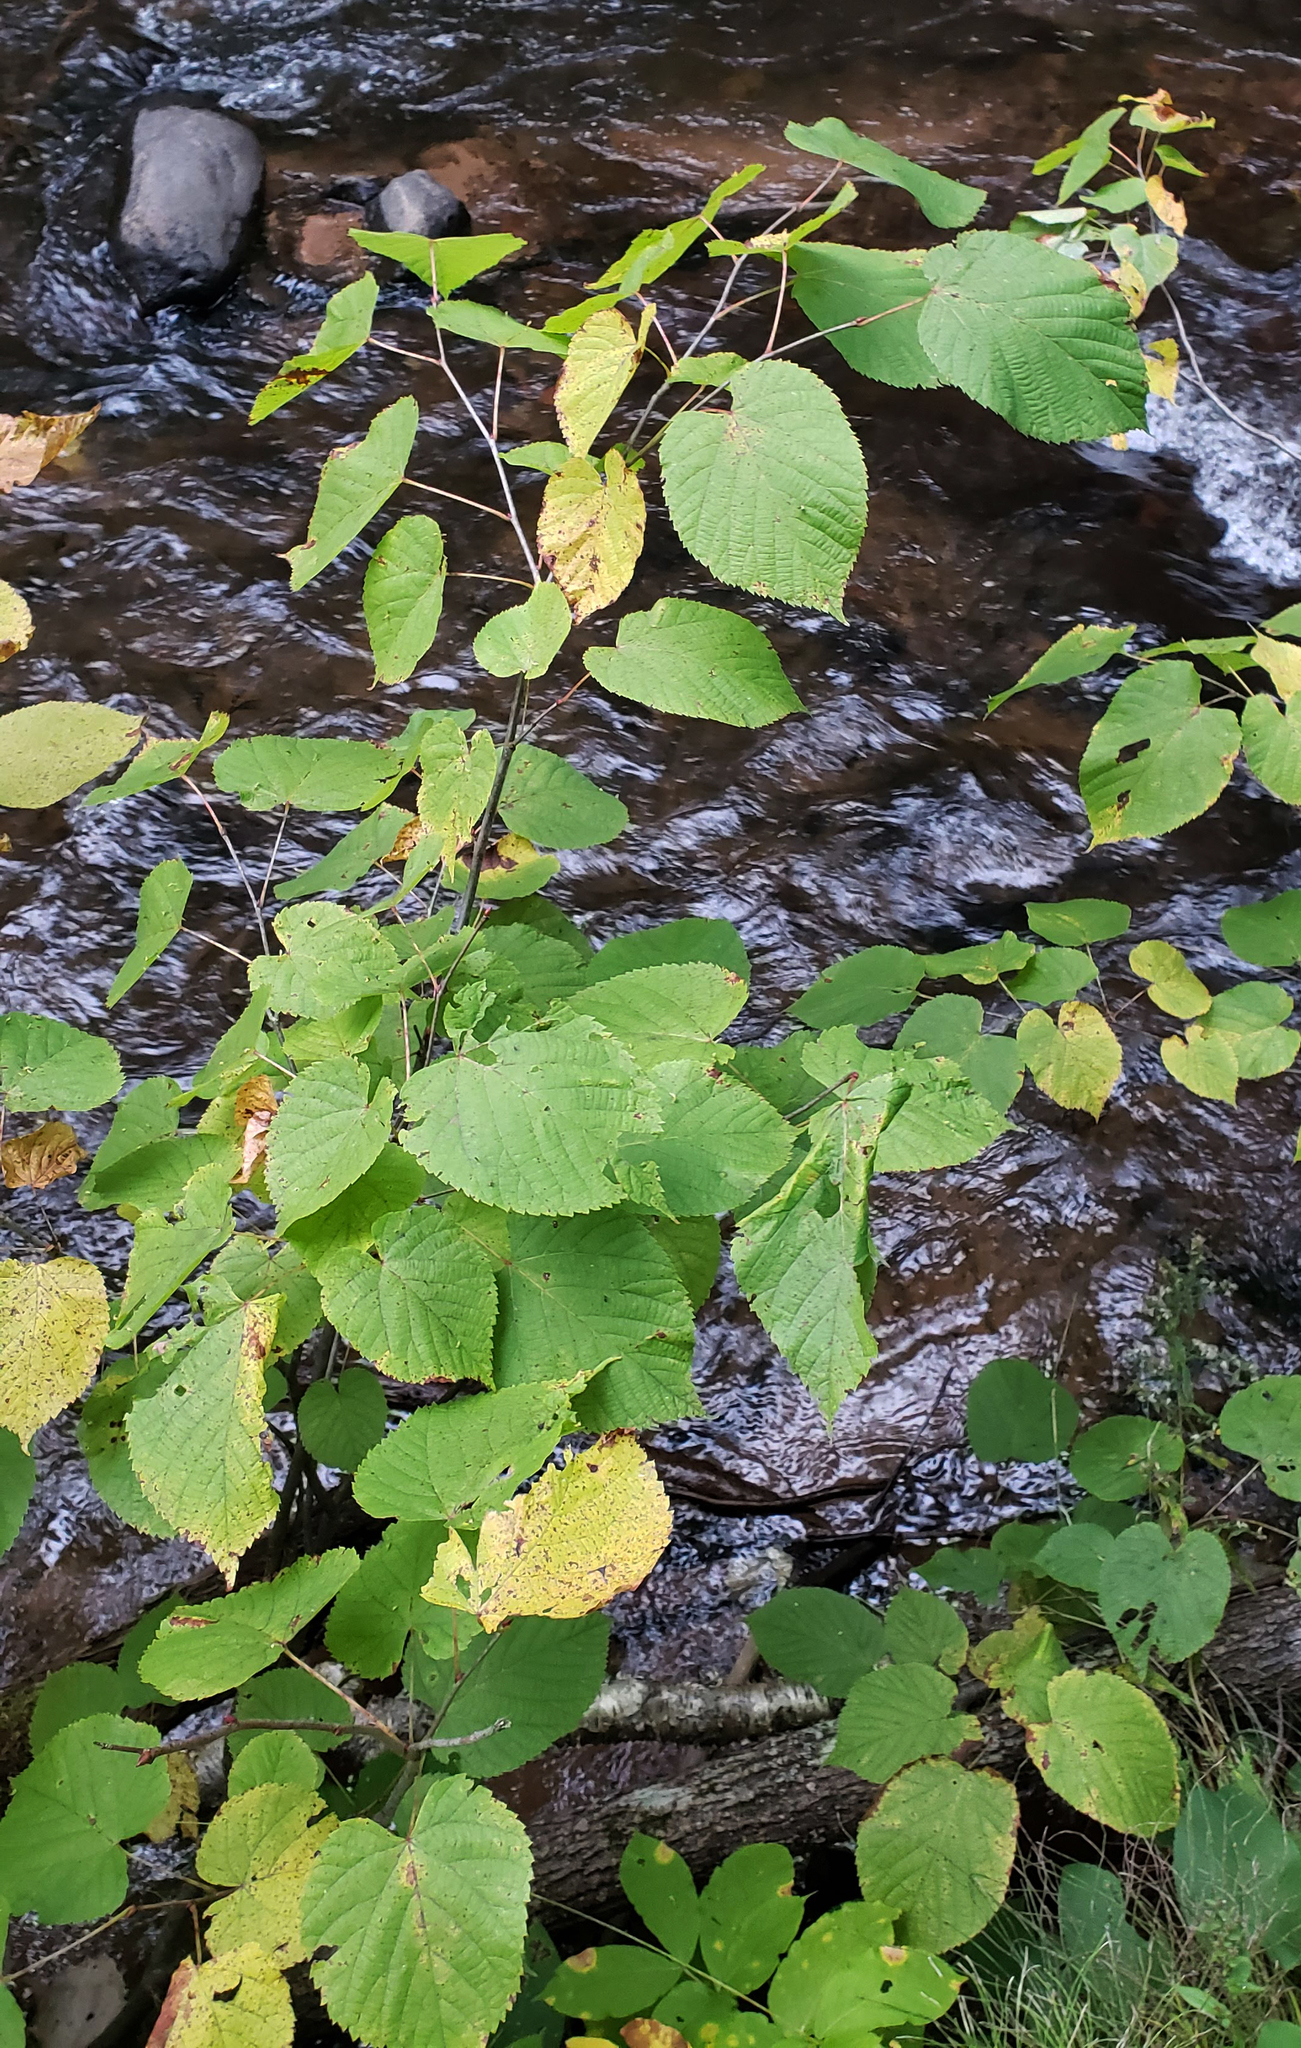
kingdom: Plantae
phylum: Tracheophyta
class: Magnoliopsida
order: Malvales
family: Malvaceae
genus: Tilia
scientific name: Tilia americana
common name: Basswood
